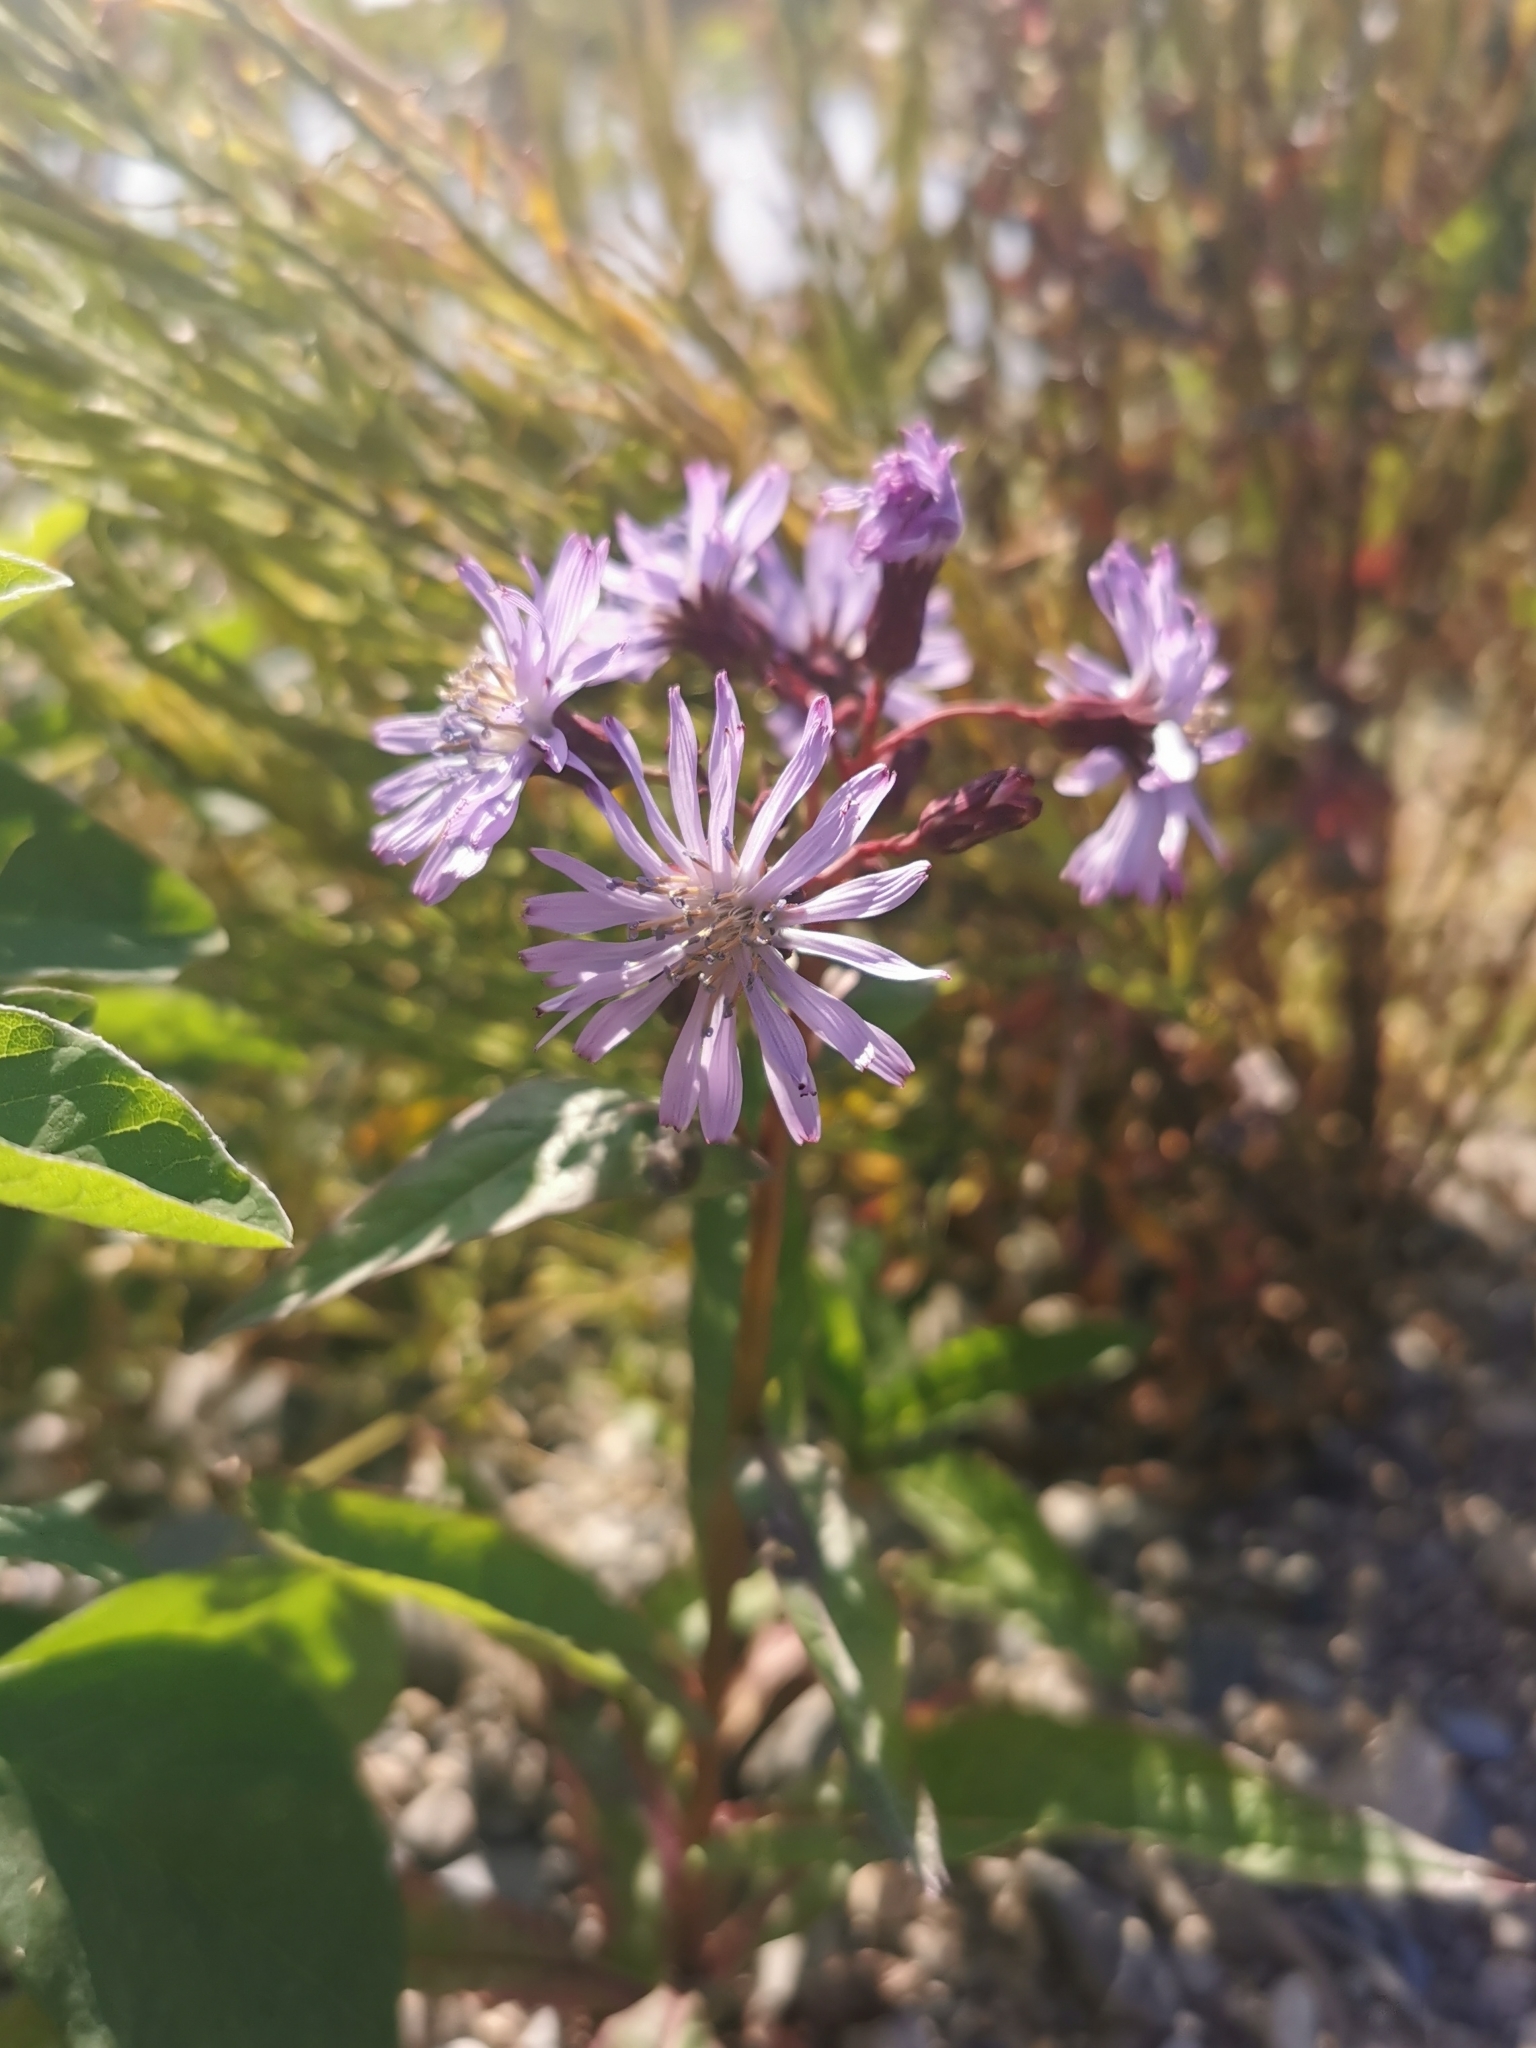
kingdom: Plantae
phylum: Tracheophyta
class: Magnoliopsida
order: Asterales
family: Asteraceae
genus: Lactuca
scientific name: Lactuca sibirica
